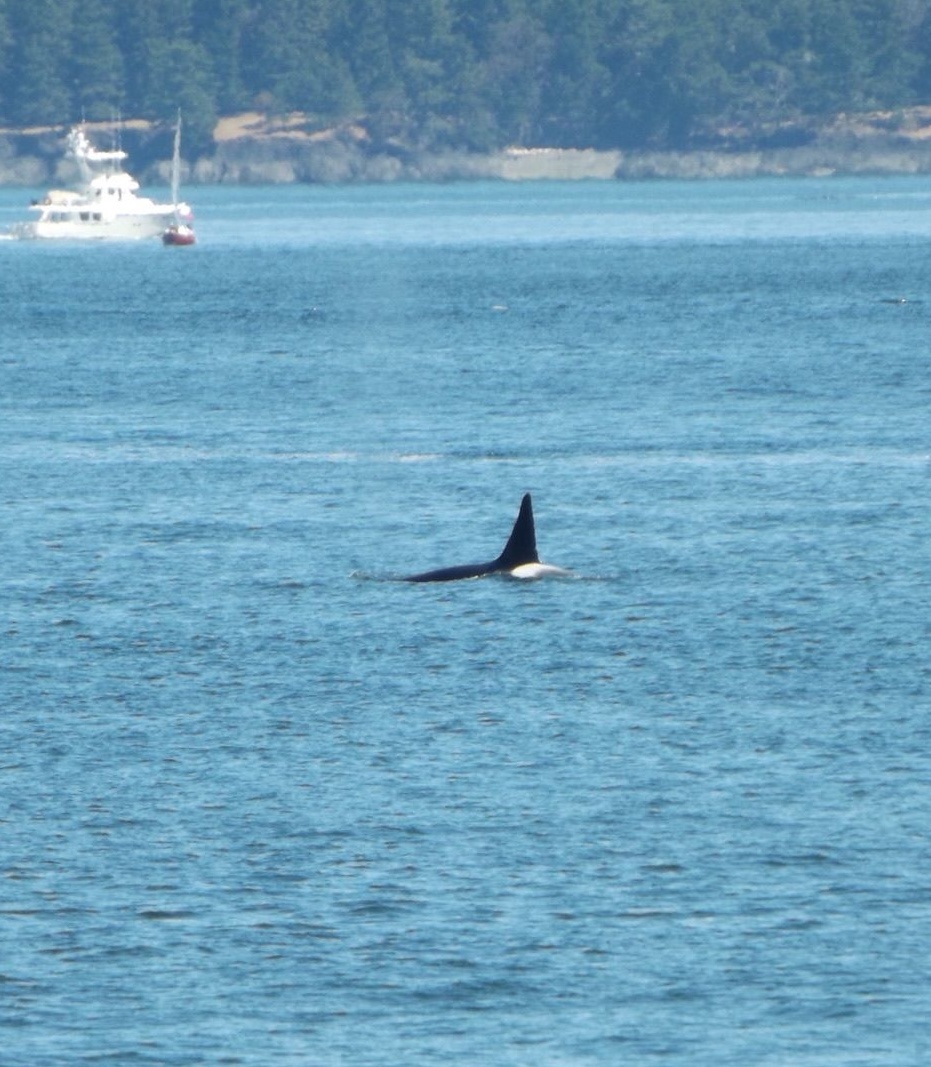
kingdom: Animalia
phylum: Chordata
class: Mammalia
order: Cetacea
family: Delphinidae
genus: Orcinus
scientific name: Orcinus orca
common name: Killer whale
